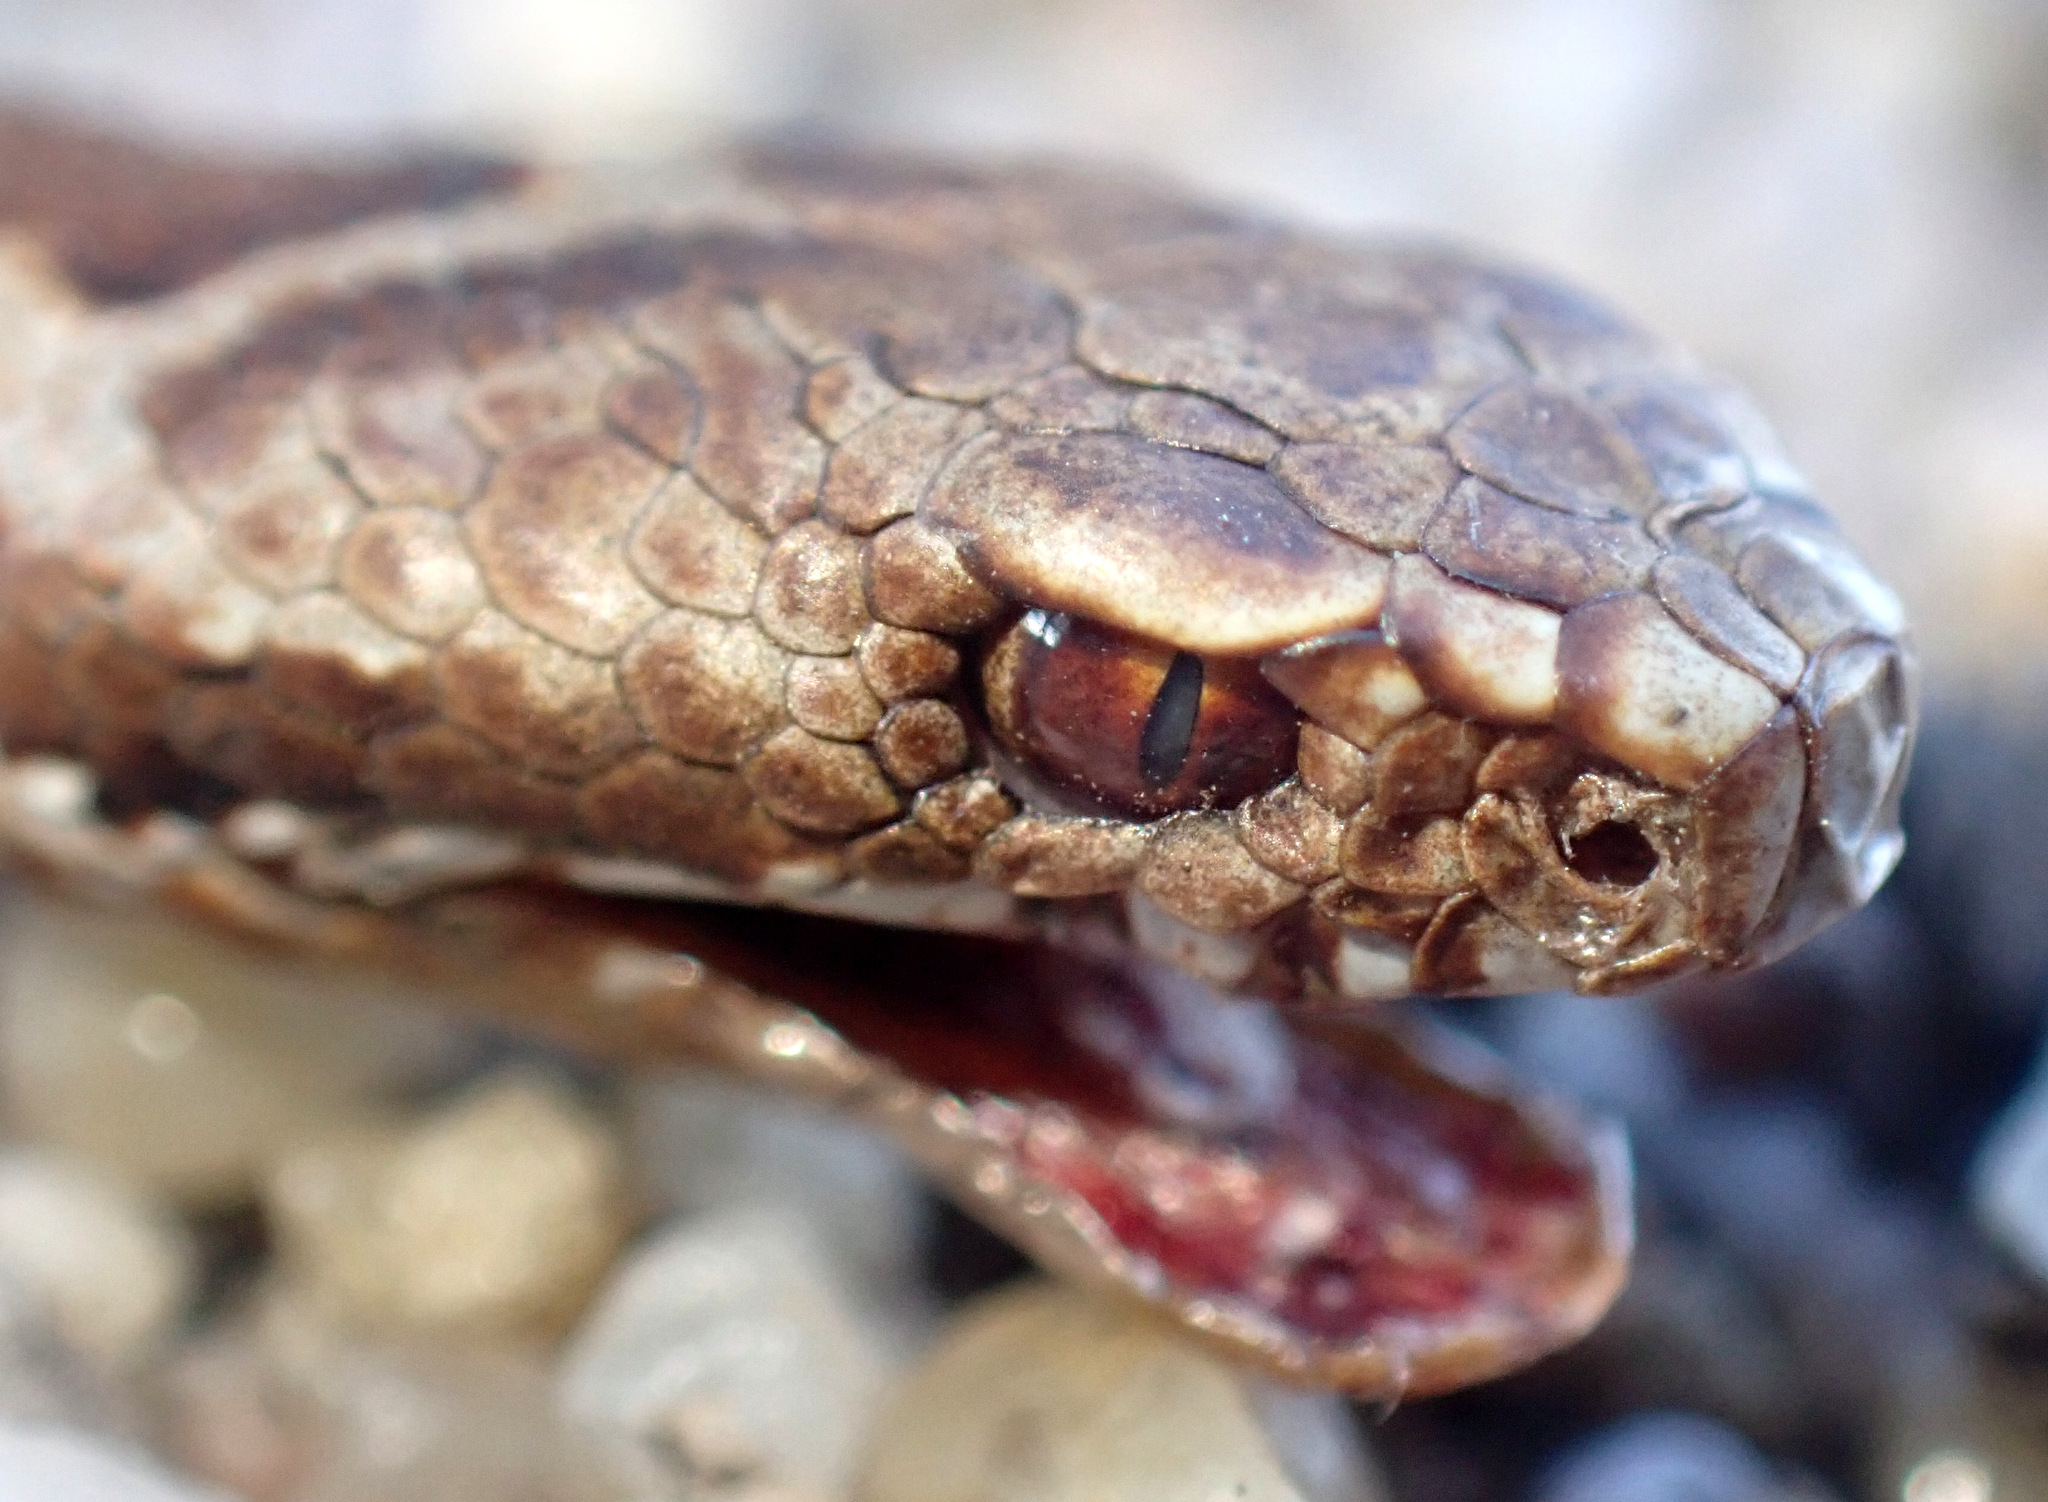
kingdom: Animalia
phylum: Chordata
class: Squamata
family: Viperidae
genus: Vipera
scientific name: Vipera berus
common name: Adder
